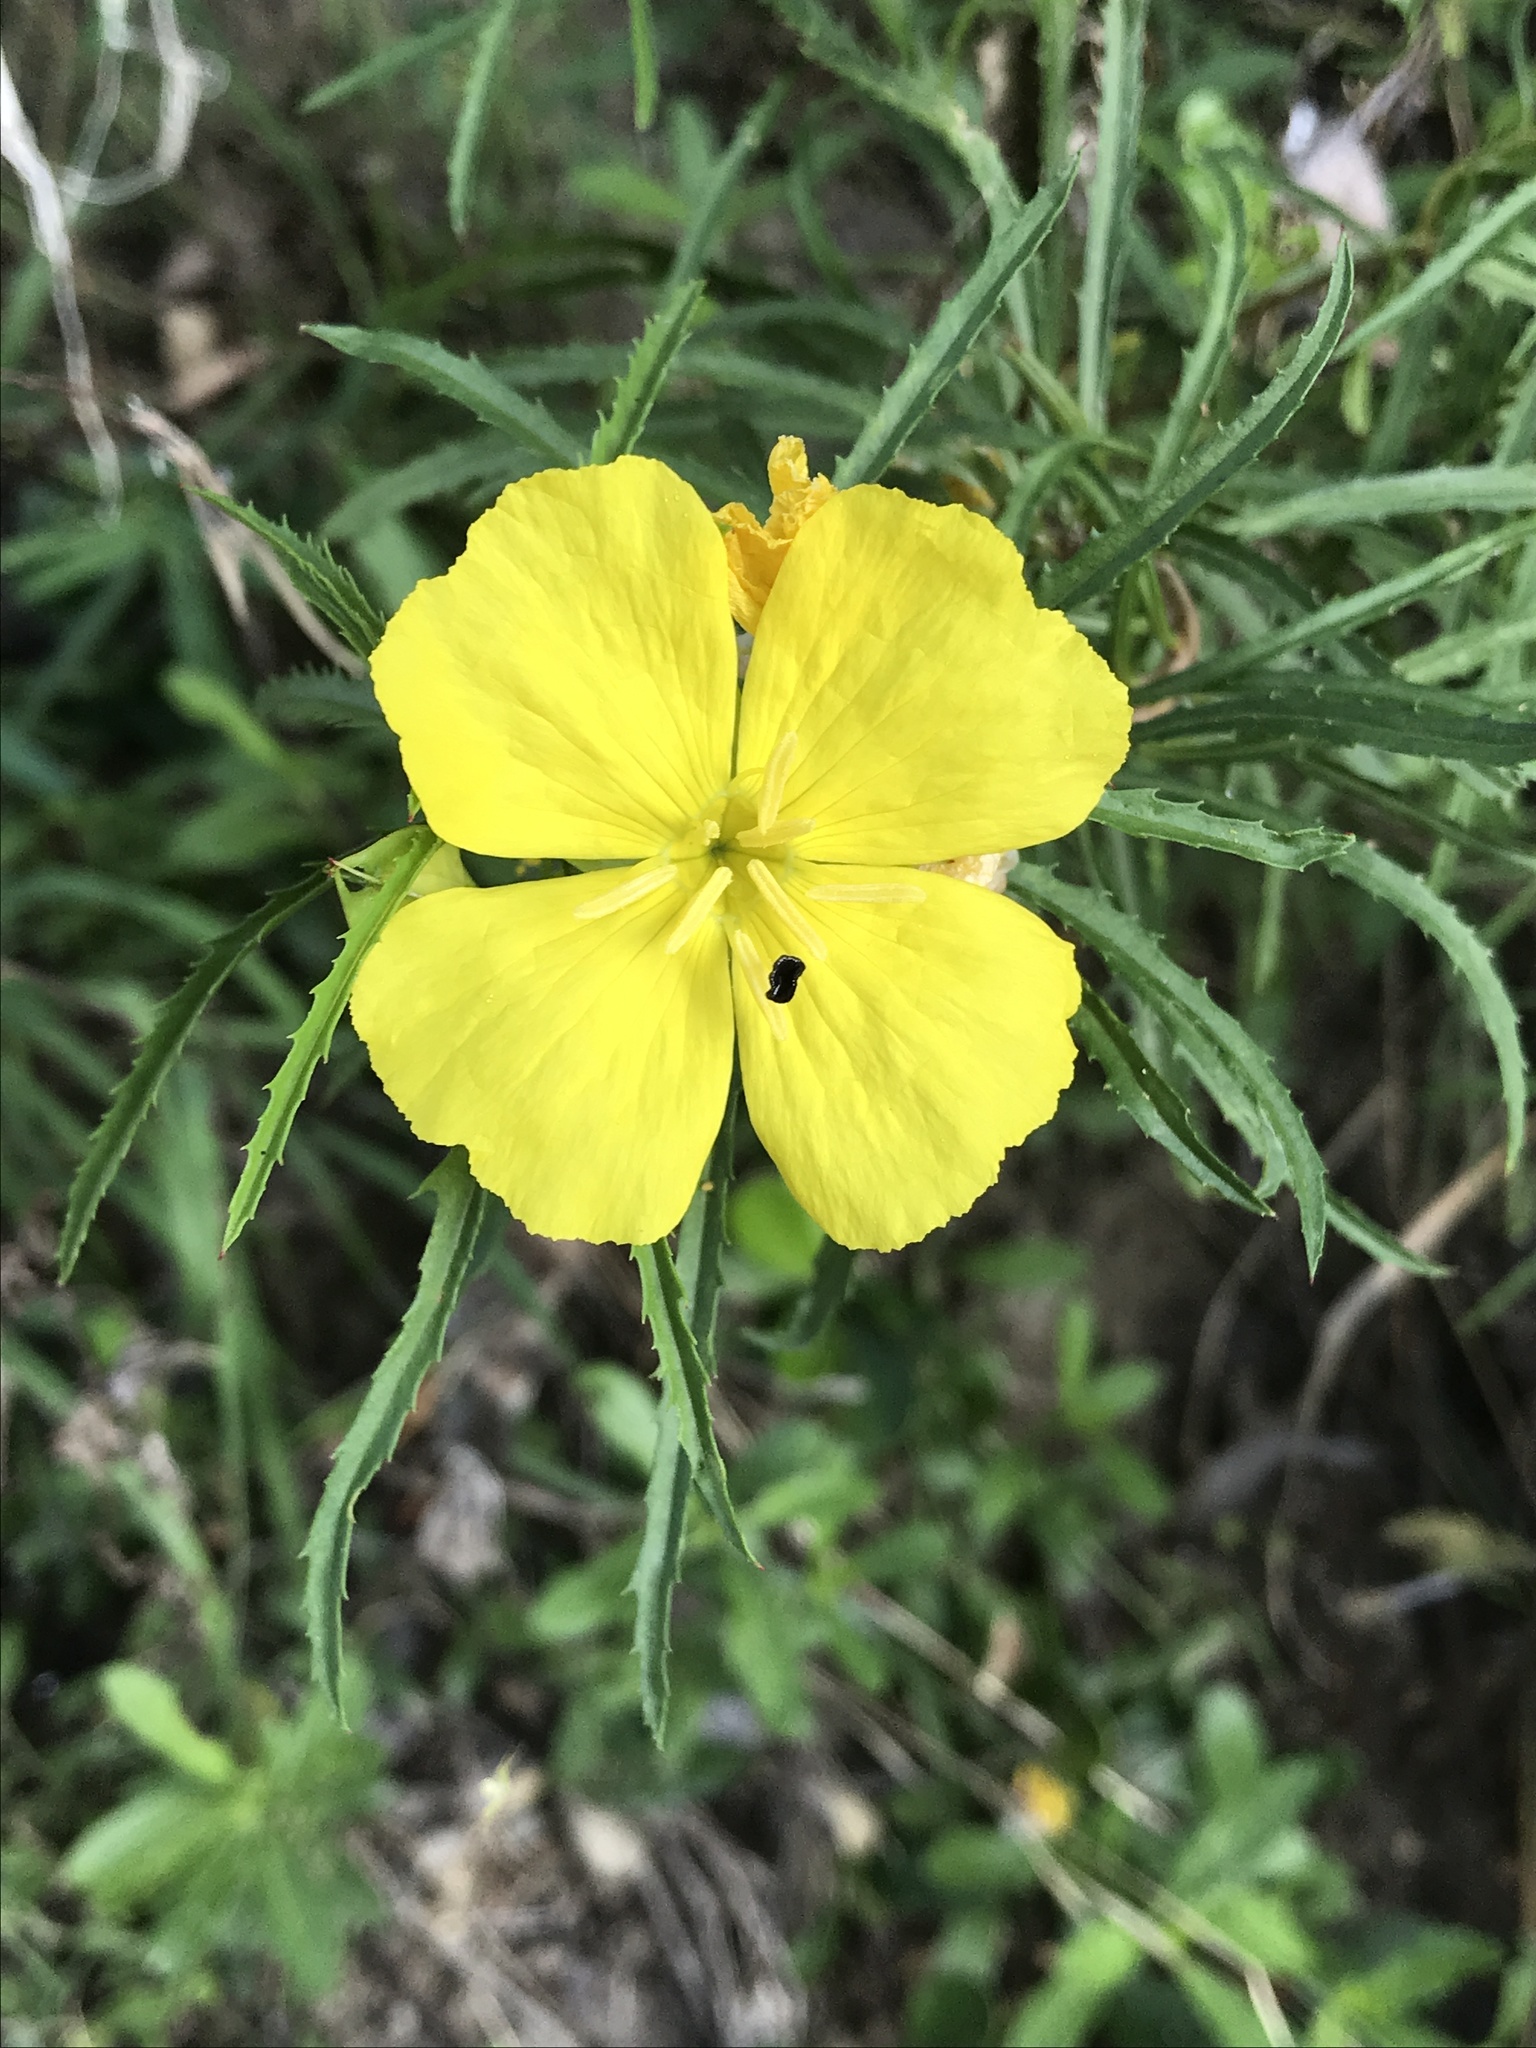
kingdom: Plantae
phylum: Tracheophyta
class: Magnoliopsida
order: Myrtales
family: Onagraceae
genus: Oenothera
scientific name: Oenothera
